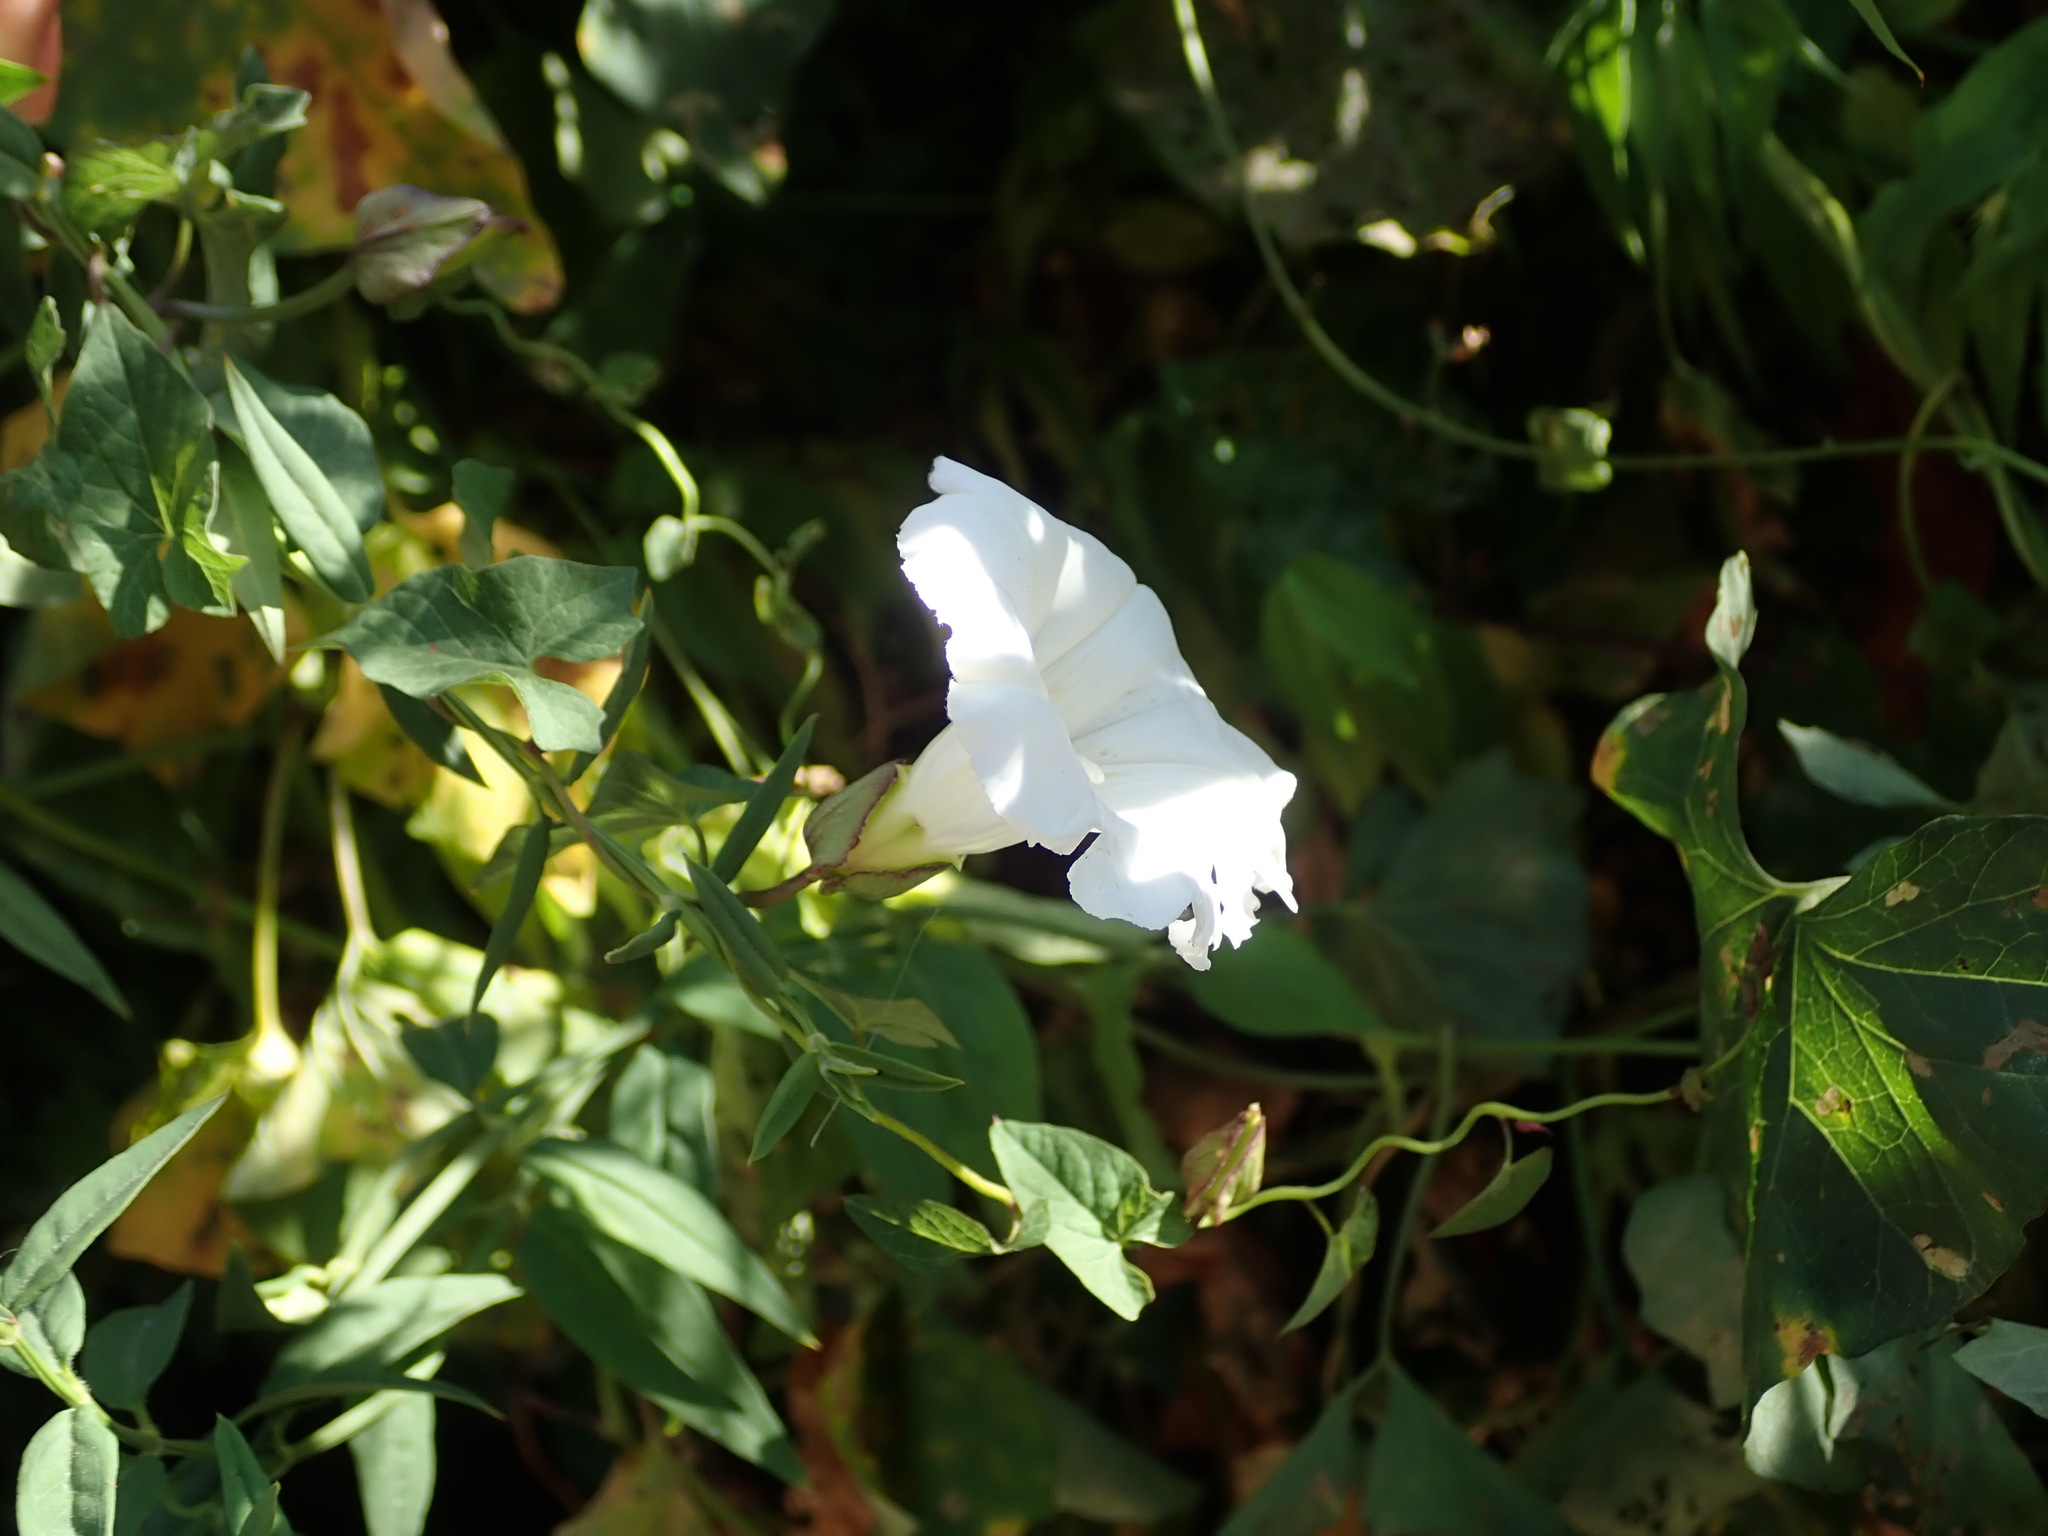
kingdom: Plantae
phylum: Tracheophyta
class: Magnoliopsida
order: Solanales
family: Convolvulaceae
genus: Calystegia
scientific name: Calystegia sepium
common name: Hedge bindweed
